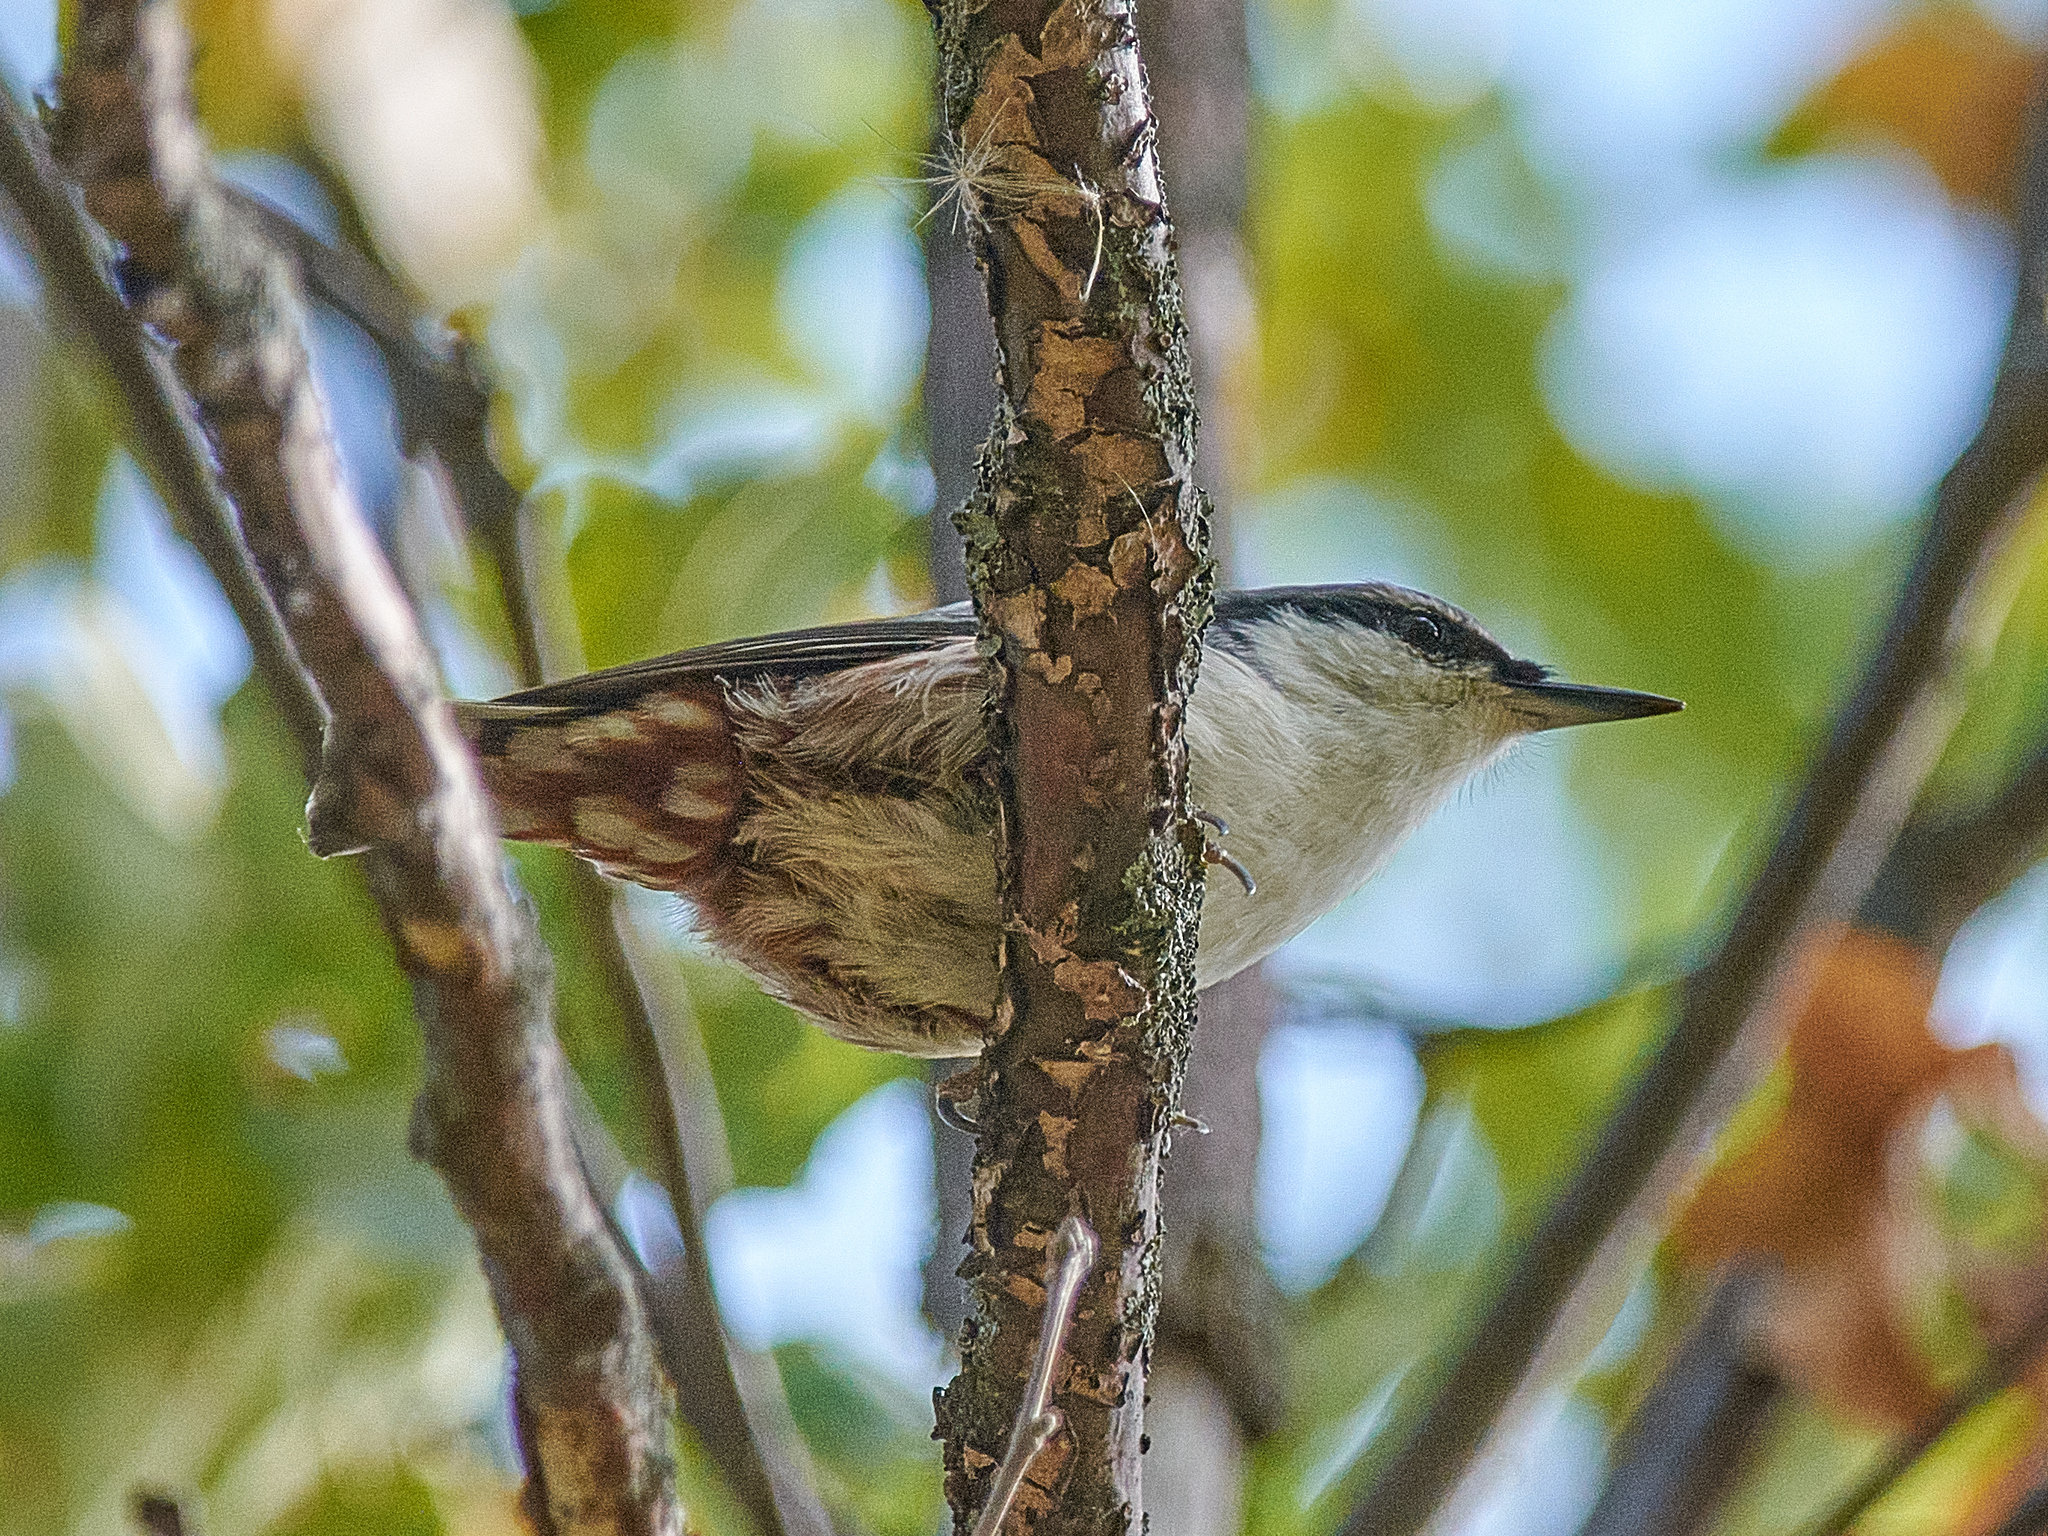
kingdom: Animalia
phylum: Chordata
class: Aves
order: Passeriformes
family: Sittidae
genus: Sitta
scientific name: Sitta europaea
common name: Eurasian nuthatch
